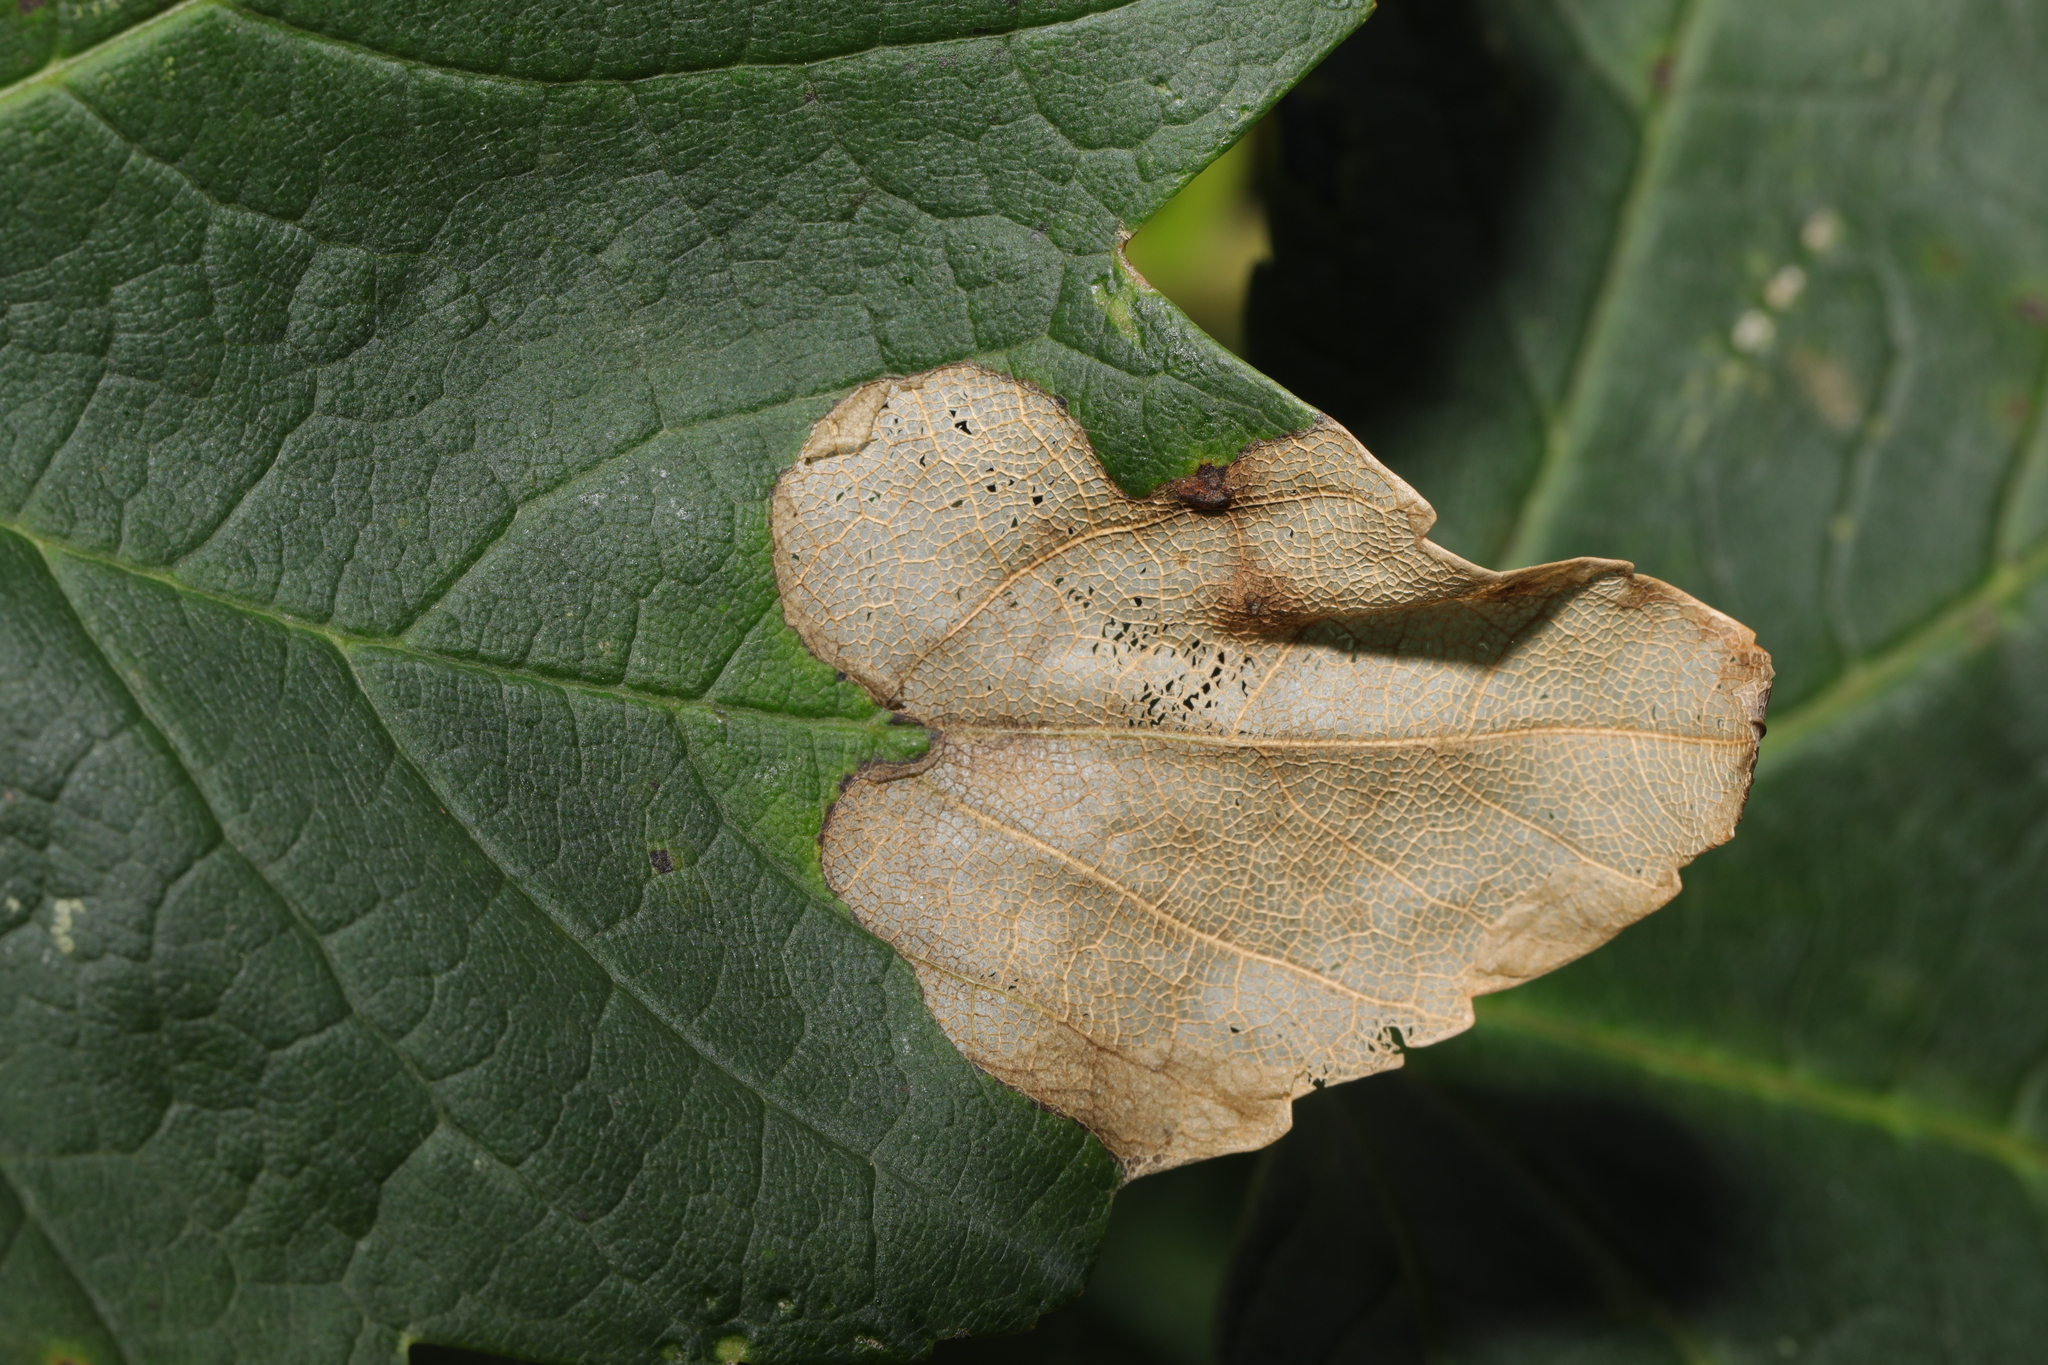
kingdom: Animalia
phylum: Arthropoda
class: Insecta
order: Hymenoptera
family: Tenthredinidae
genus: Heterarthrus
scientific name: Heterarthrus fiora
